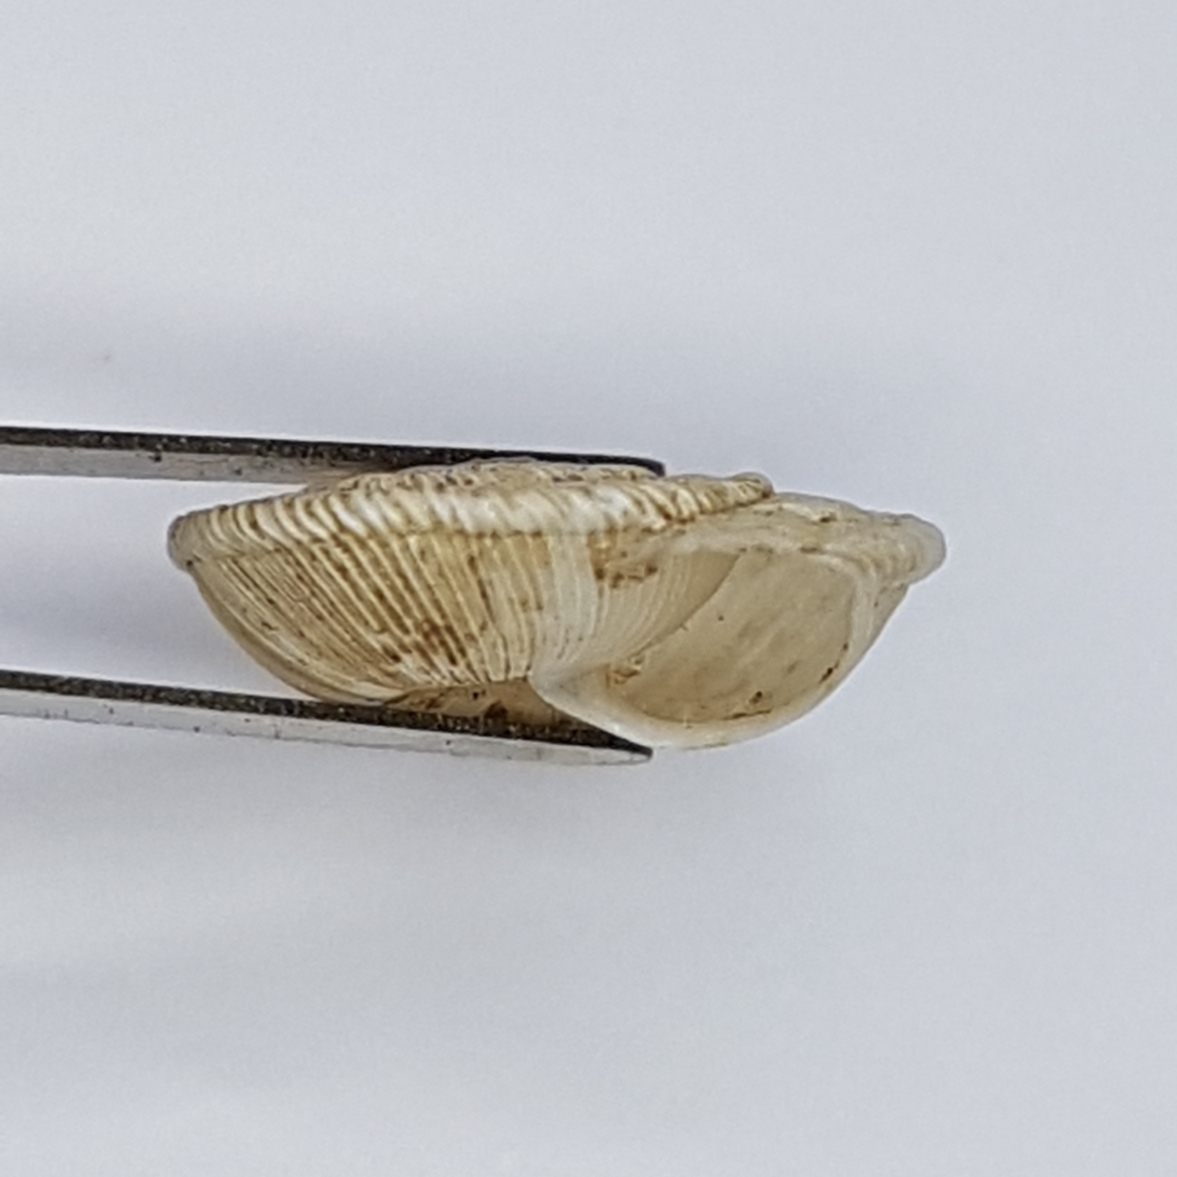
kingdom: Animalia
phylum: Mollusca
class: Gastropoda
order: Stylommatophora
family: Geomitridae
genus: Xeroplexa
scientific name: Xeroplexa setubalensis
